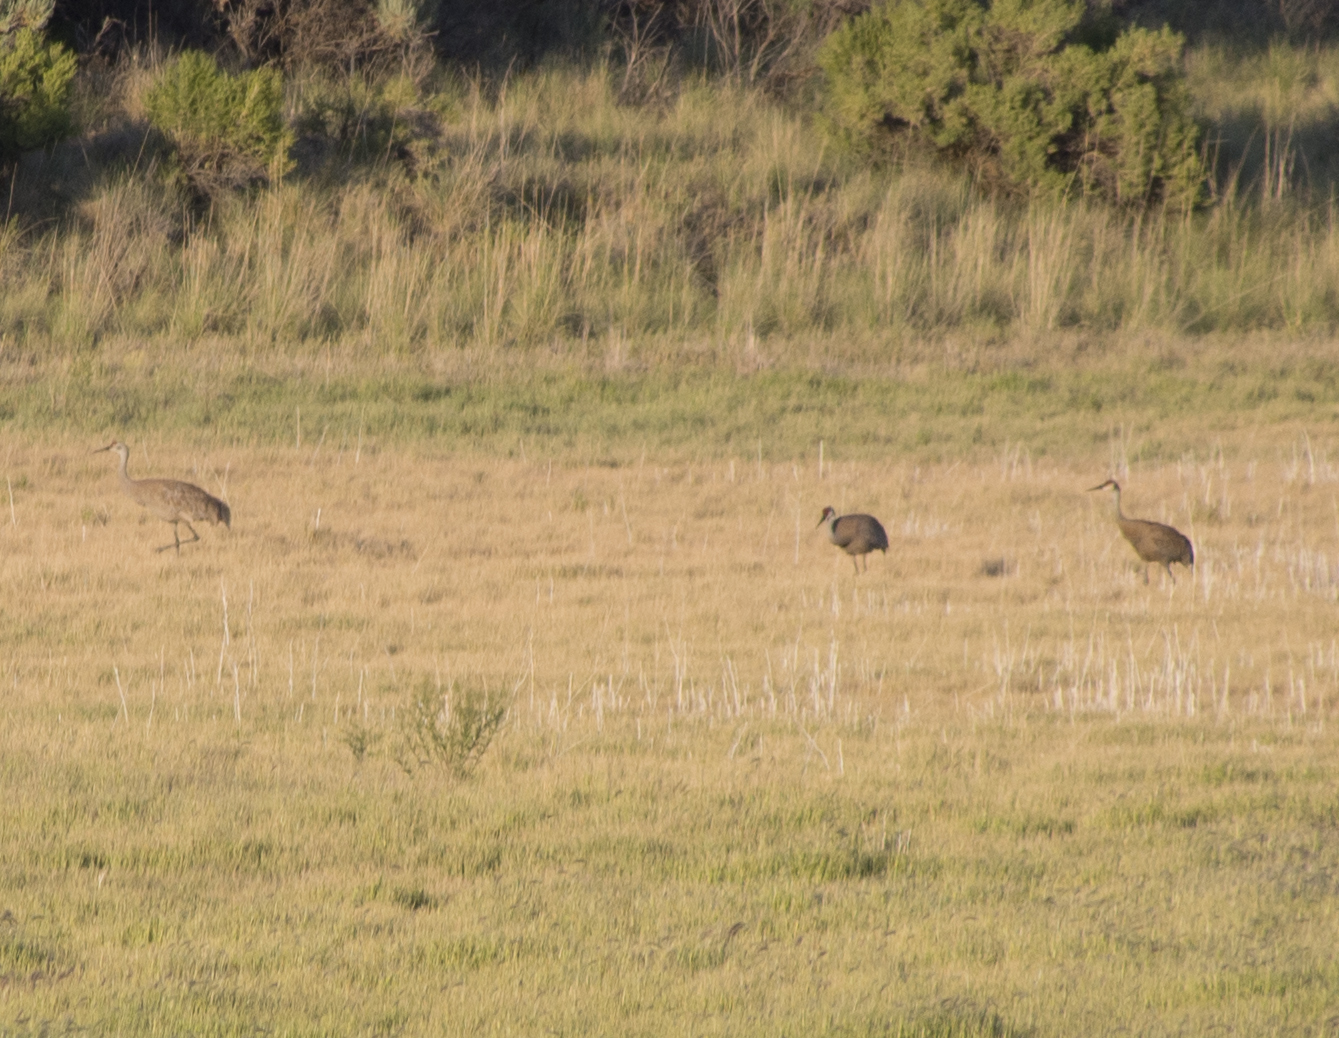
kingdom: Animalia
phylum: Chordata
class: Aves
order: Gruiformes
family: Gruidae
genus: Grus
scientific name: Grus canadensis
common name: Sandhill crane
